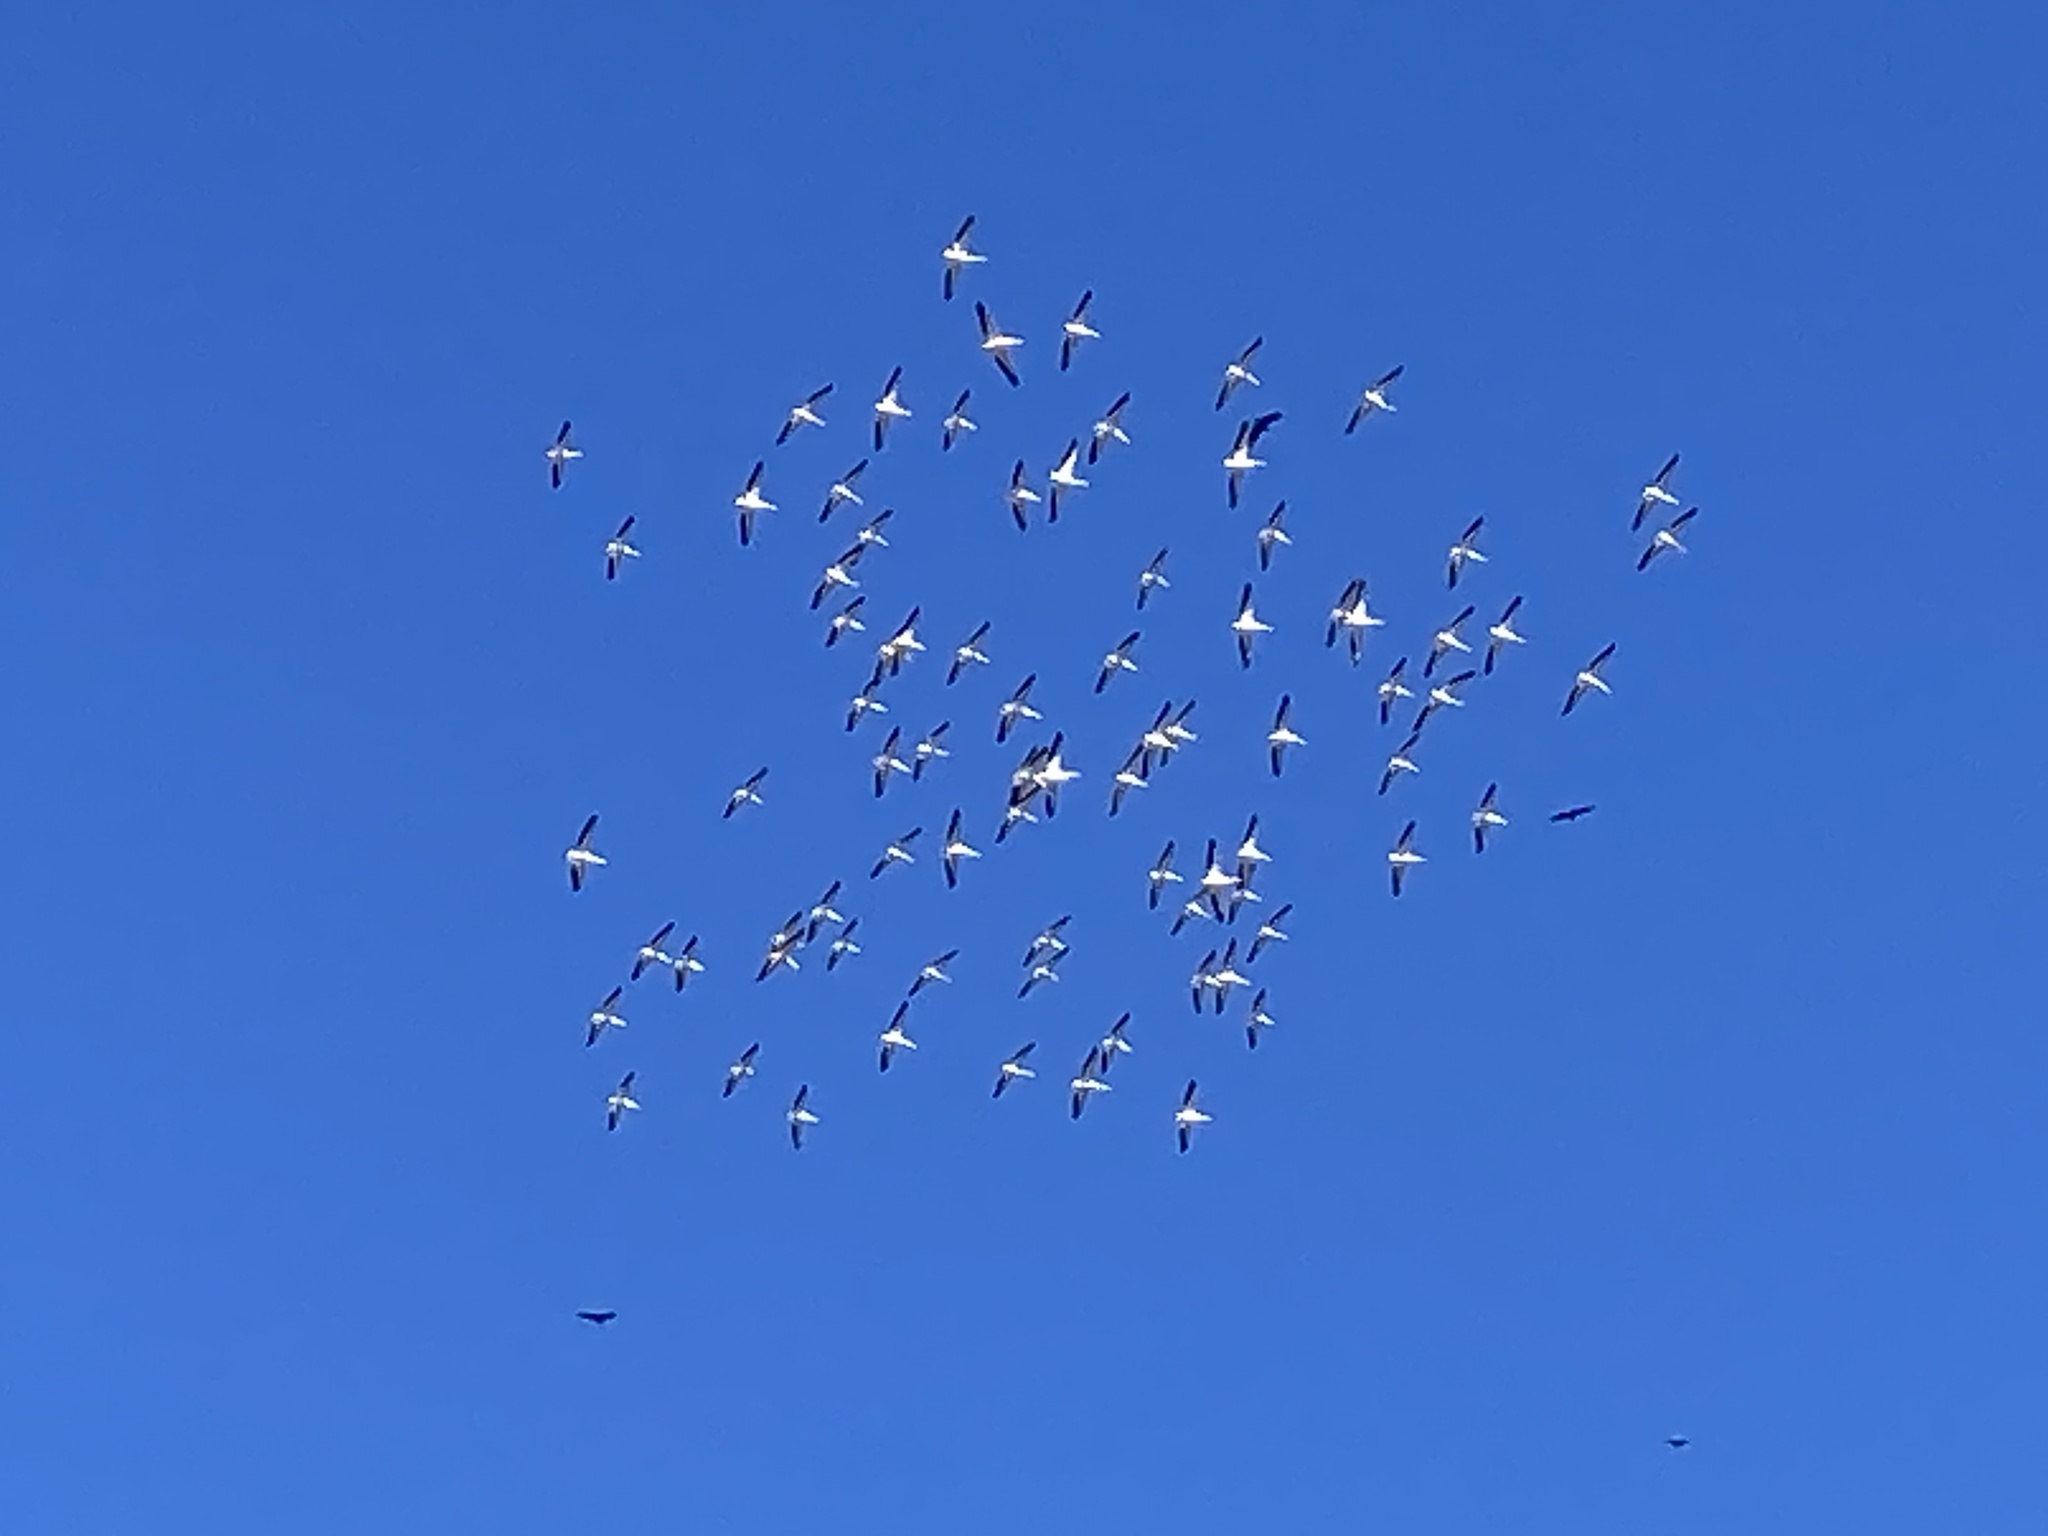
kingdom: Animalia
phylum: Chordata
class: Aves
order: Pelecaniformes
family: Pelecanidae
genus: Pelecanus
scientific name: Pelecanus erythrorhynchos
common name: American white pelican
